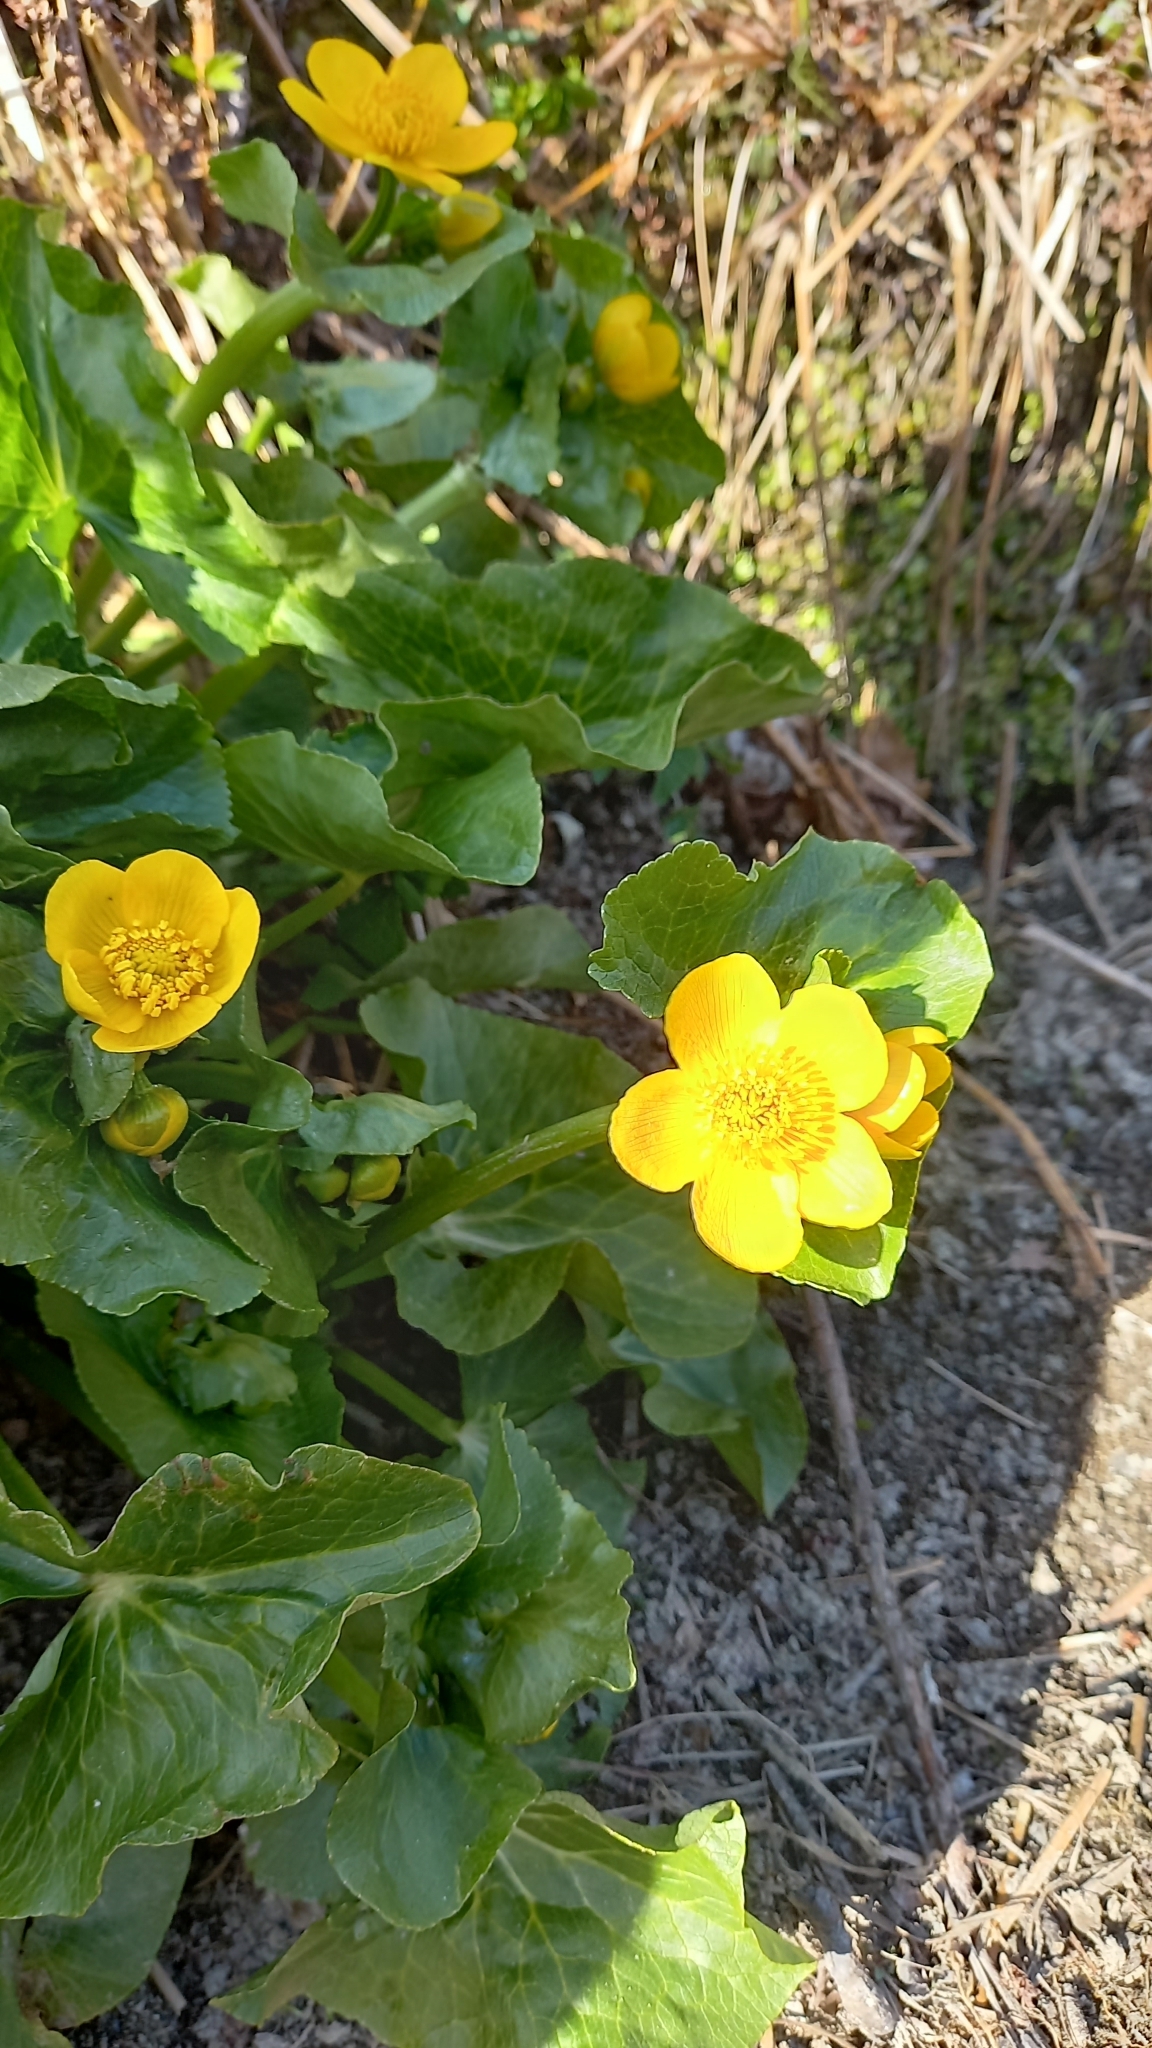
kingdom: Plantae
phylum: Tracheophyta
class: Magnoliopsida
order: Ranunculales
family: Ranunculaceae
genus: Caltha
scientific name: Caltha palustris
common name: Marsh marigold
